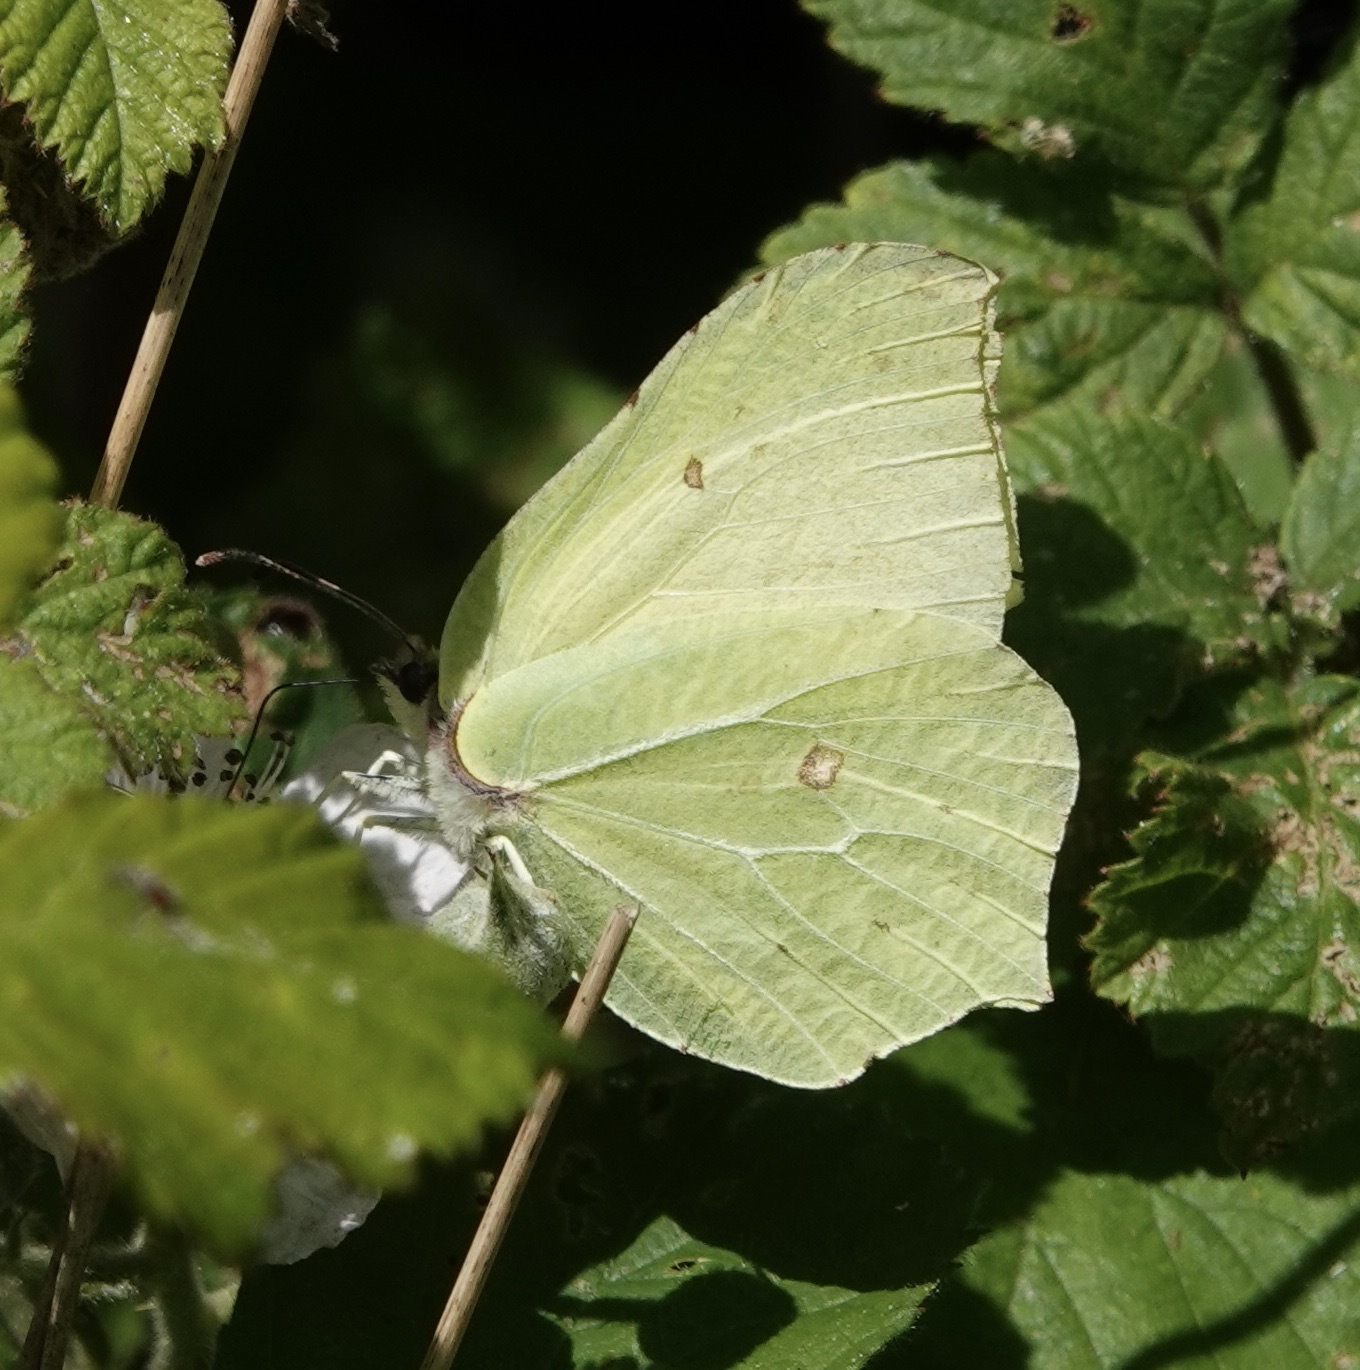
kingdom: Animalia
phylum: Arthropoda
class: Insecta
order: Lepidoptera
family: Pieridae
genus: Gonepteryx
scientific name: Gonepteryx rhamni
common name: Brimstone
